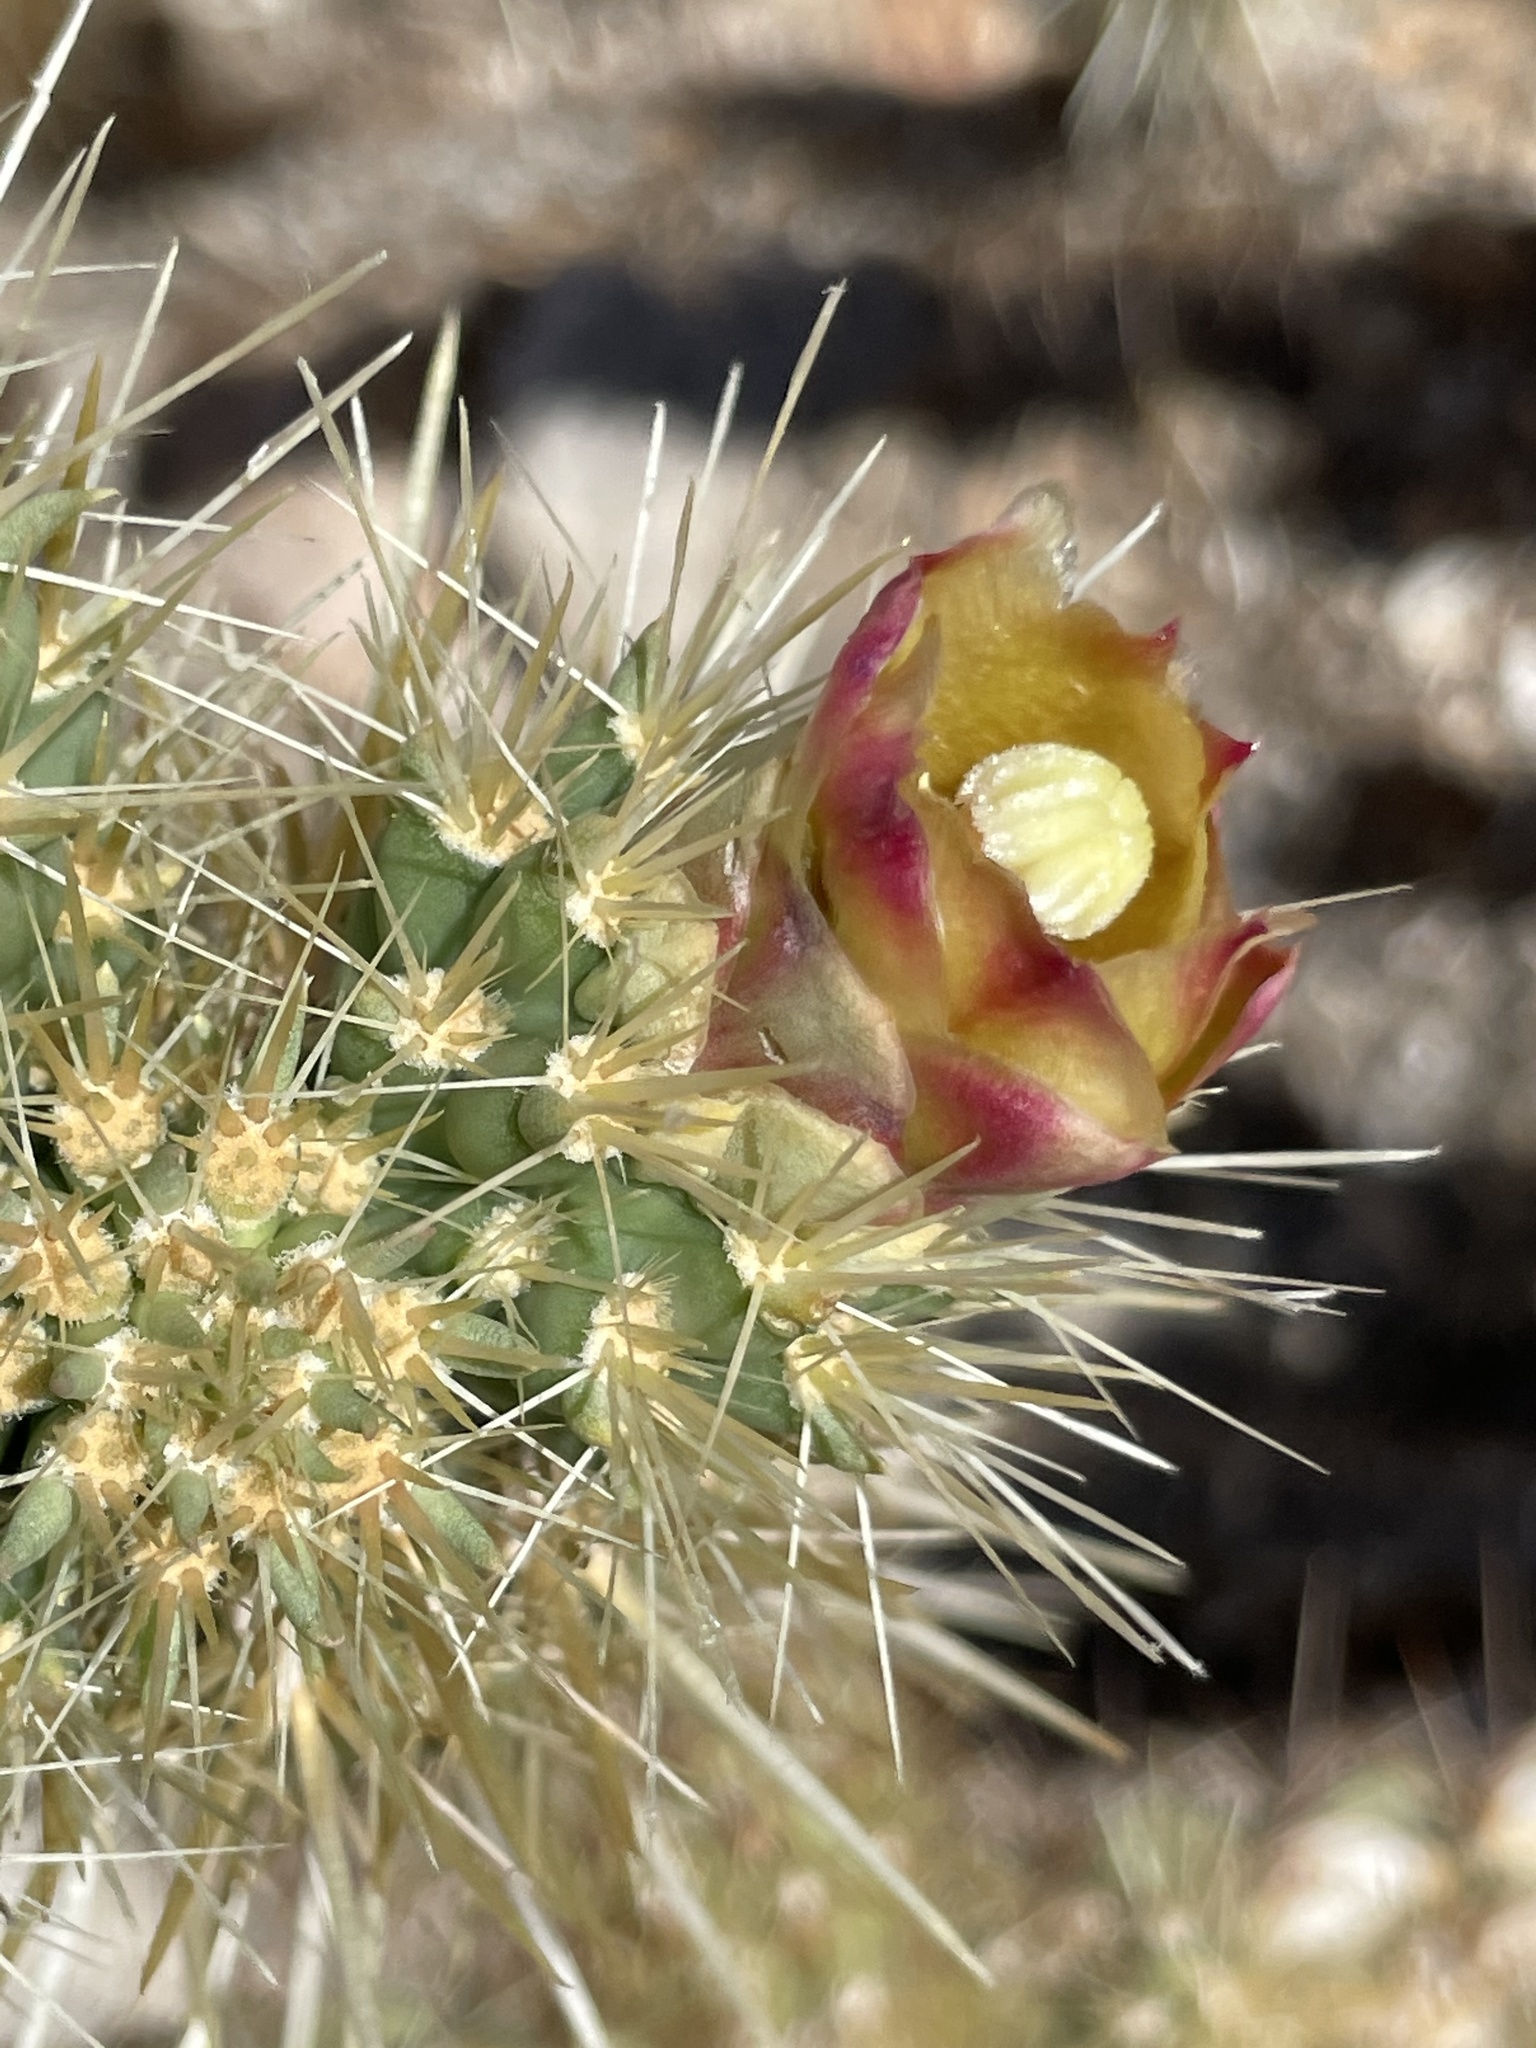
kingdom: Plantae
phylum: Tracheophyta
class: Magnoliopsida
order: Caryophyllales
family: Cactaceae
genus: Cylindropuntia
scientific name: Cylindropuntia wolfii
